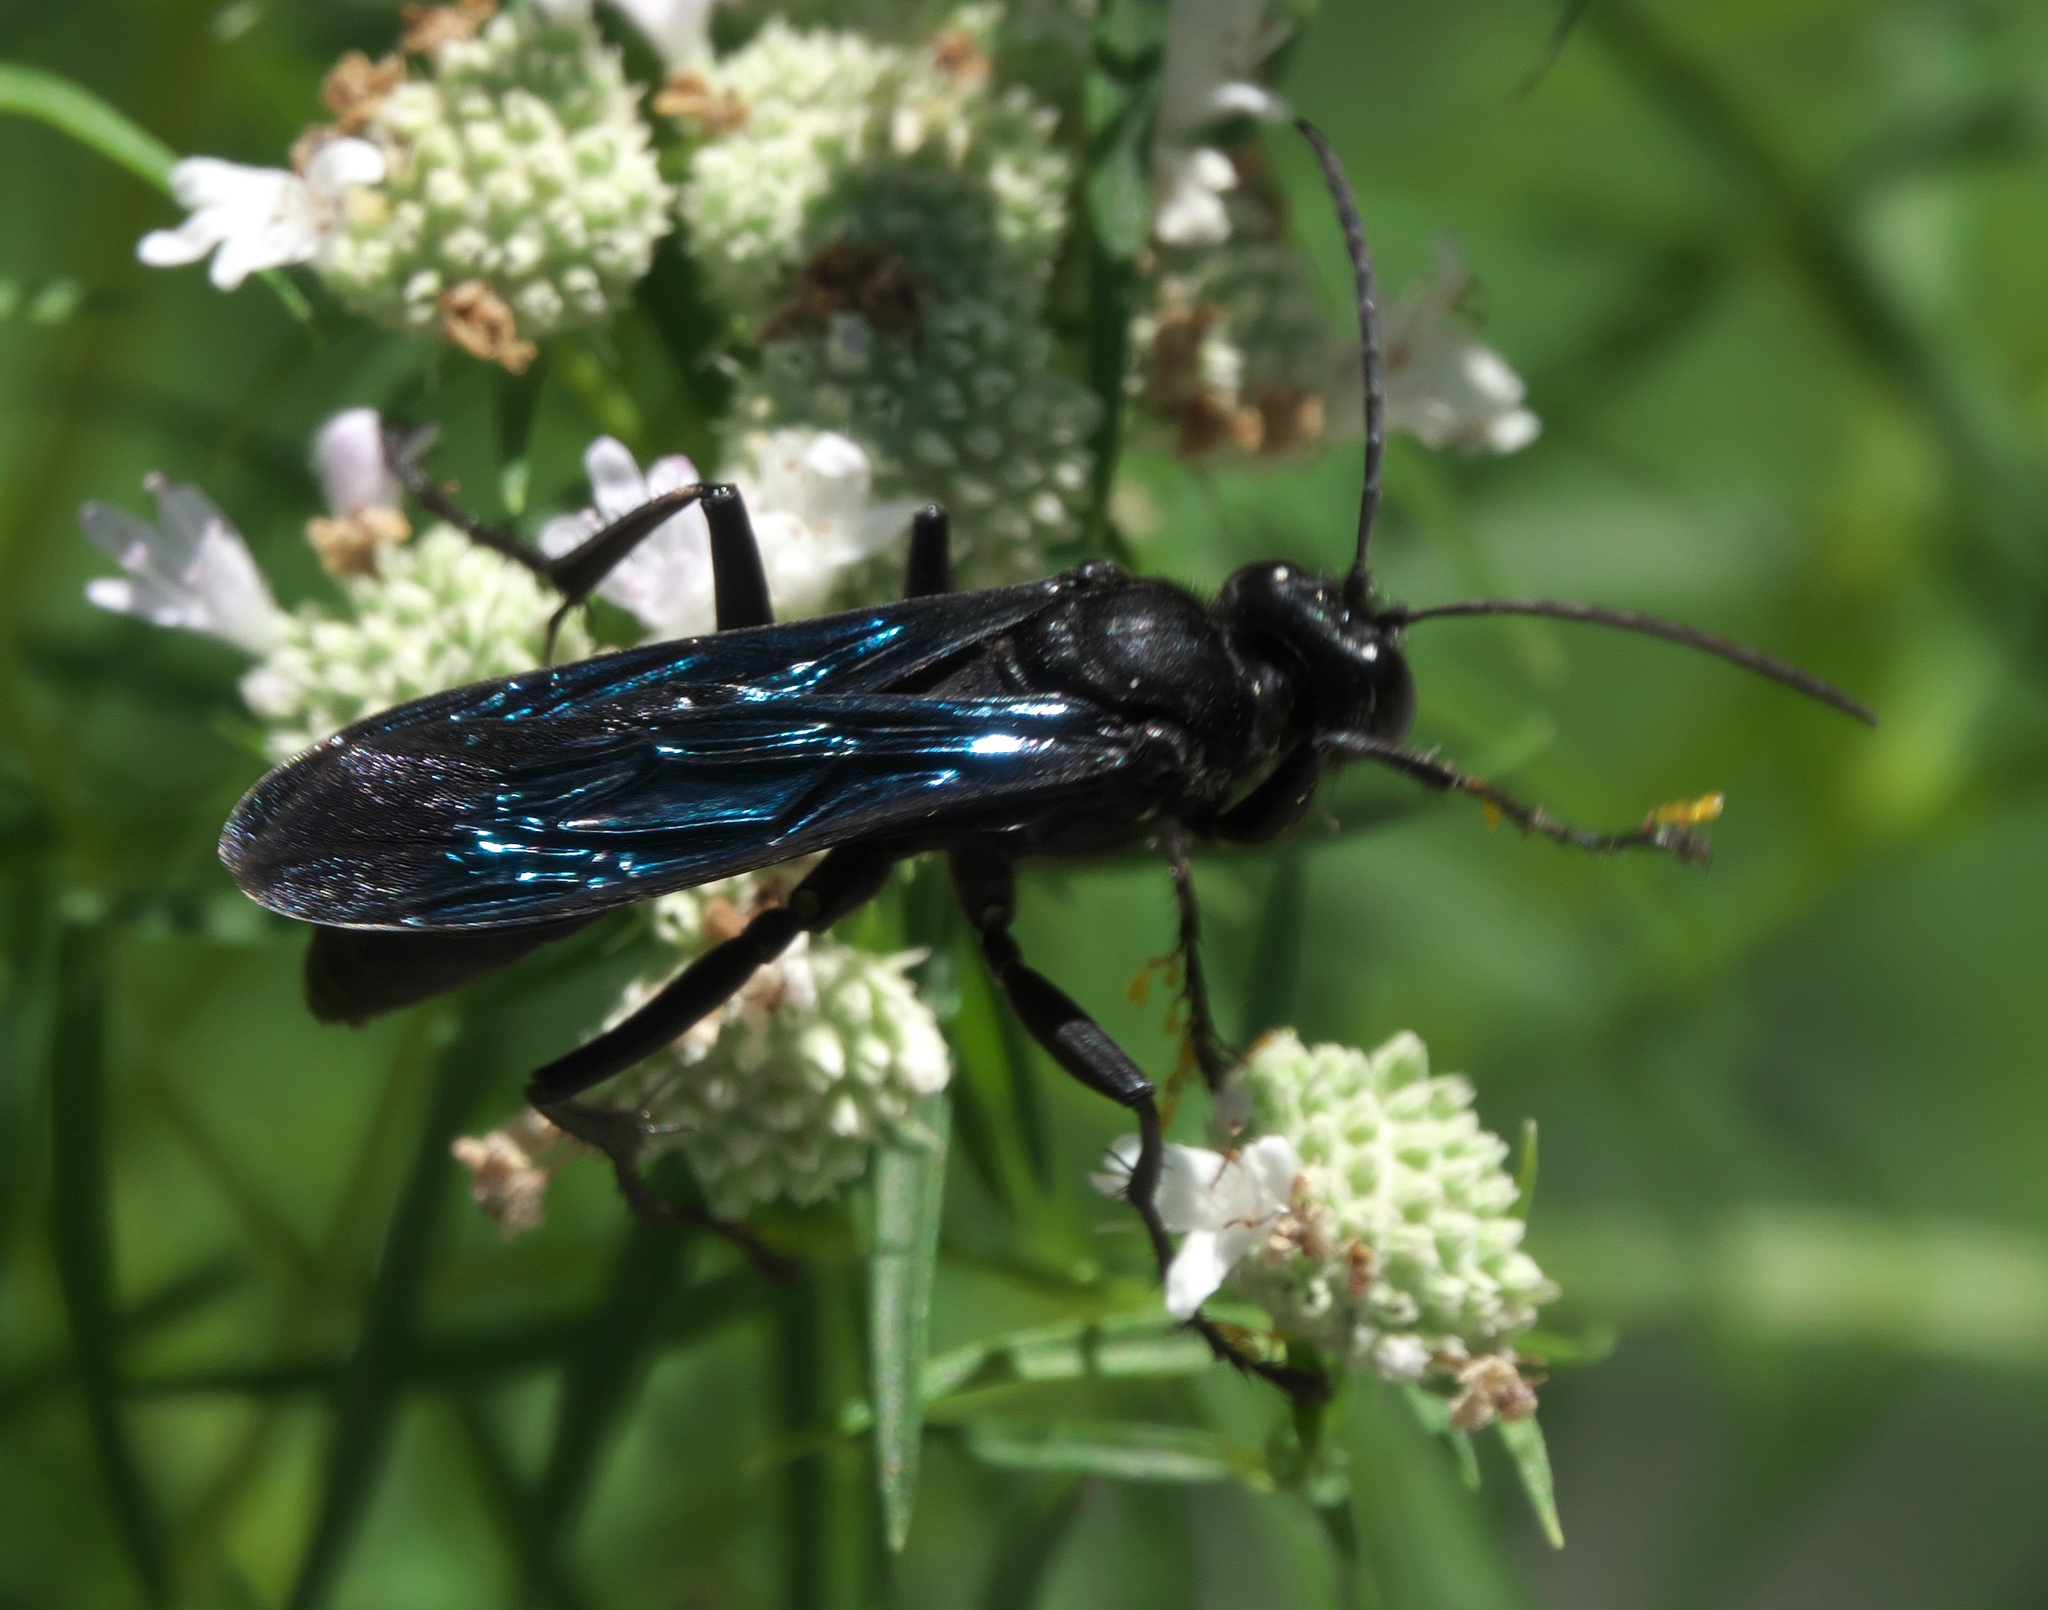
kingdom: Animalia
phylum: Arthropoda
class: Insecta
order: Hymenoptera
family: Sphecidae
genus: Sphex
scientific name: Sphex pensylvanicus
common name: Great black digger wasp
